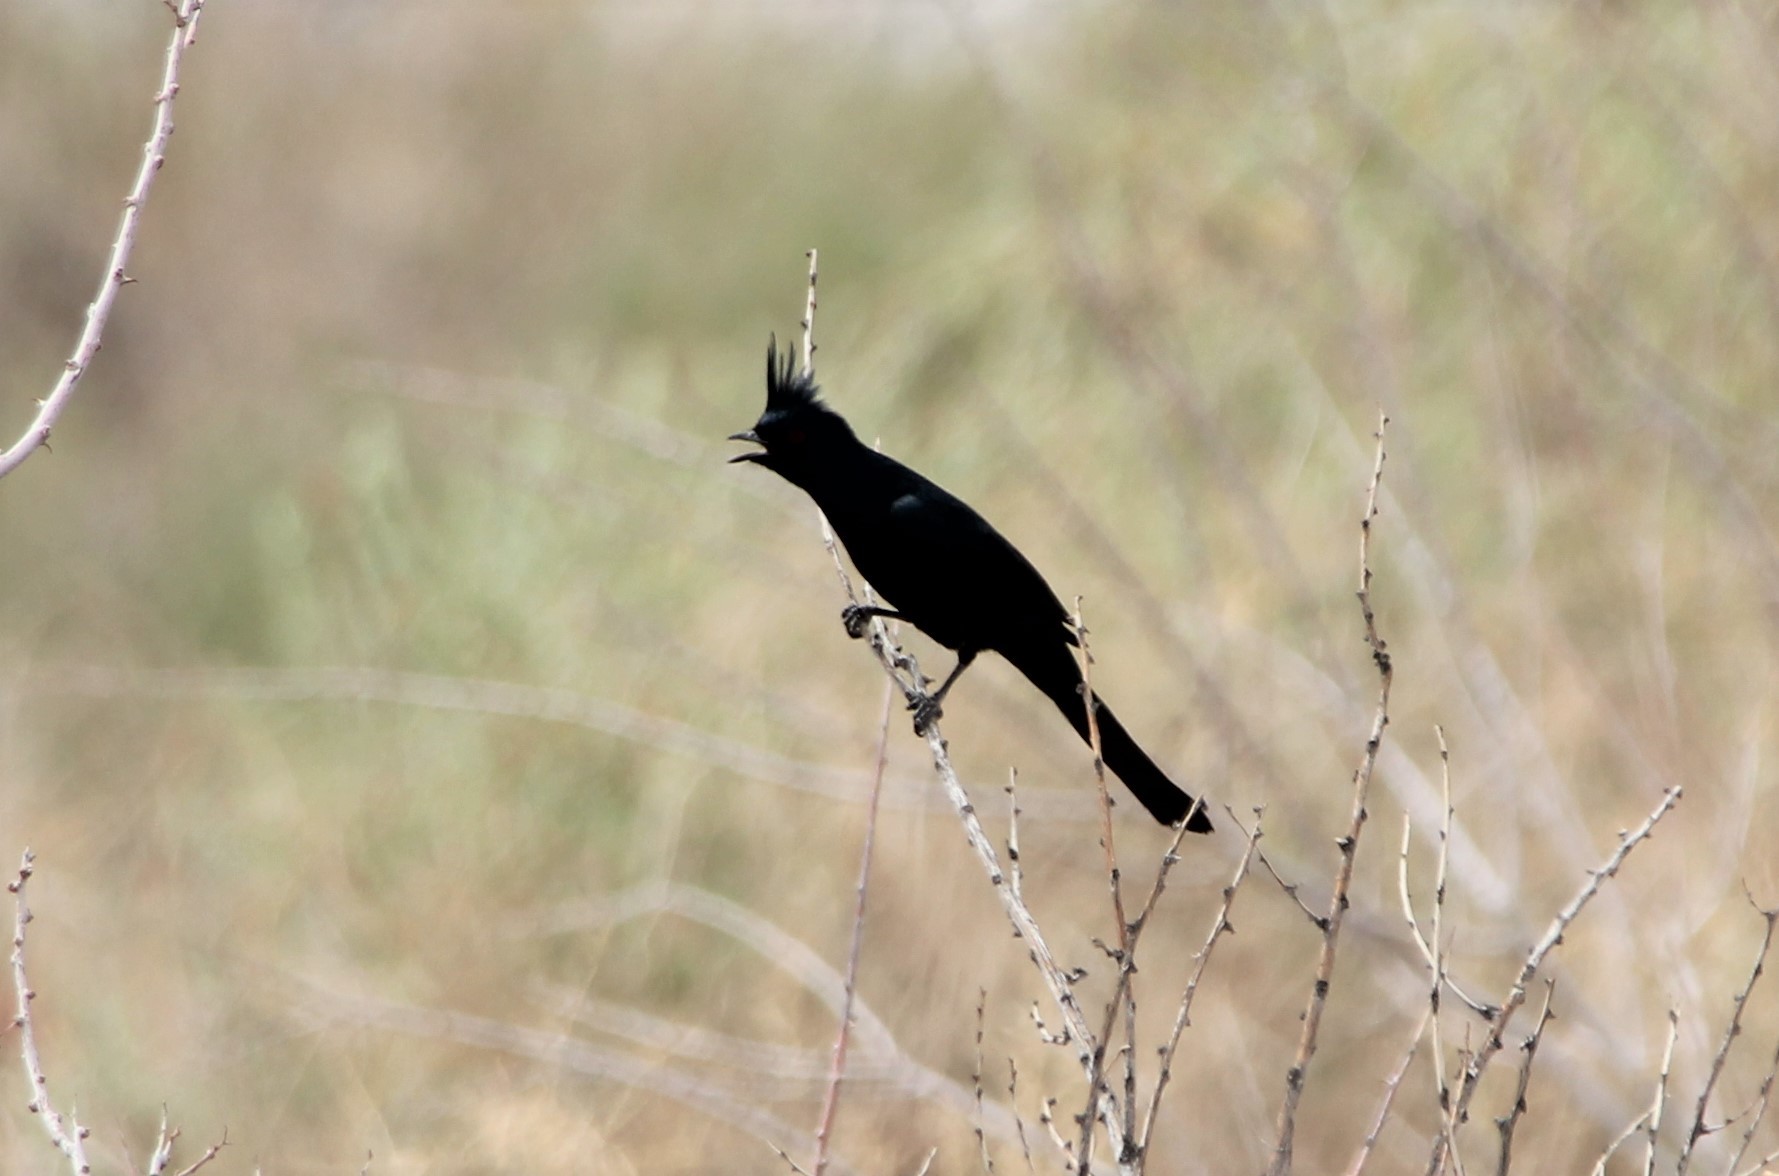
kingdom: Animalia
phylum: Chordata
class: Aves
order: Passeriformes
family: Ptilogonatidae
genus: Phainopepla
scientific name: Phainopepla nitens
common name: Phainopepla
